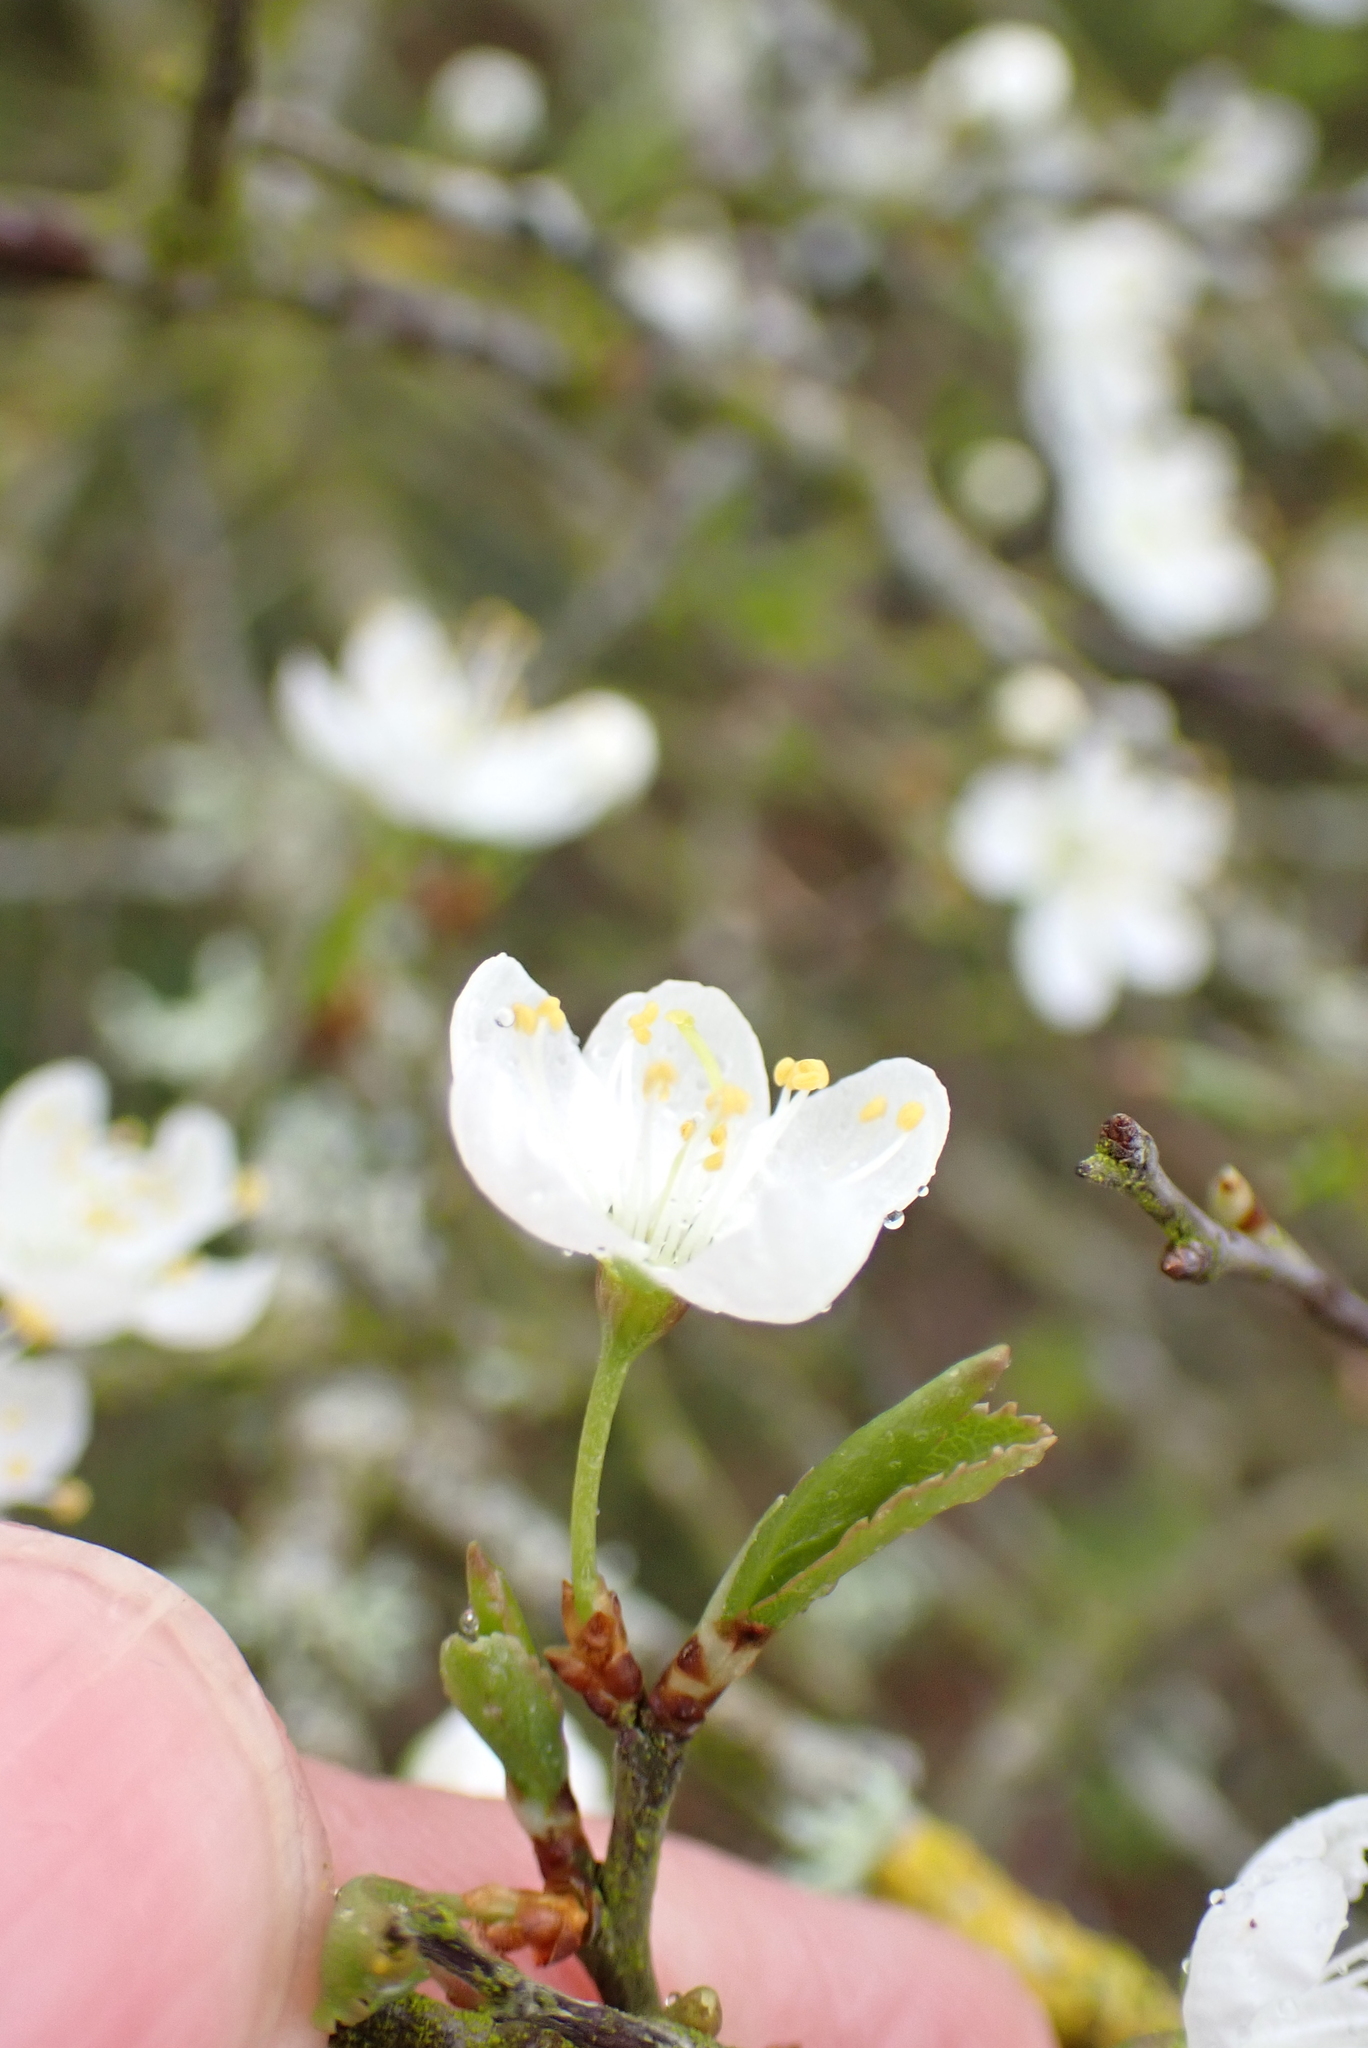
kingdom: Plantae
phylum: Tracheophyta
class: Magnoliopsida
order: Rosales
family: Rosaceae
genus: Prunus
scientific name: Prunus spinosa
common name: Blackthorn
